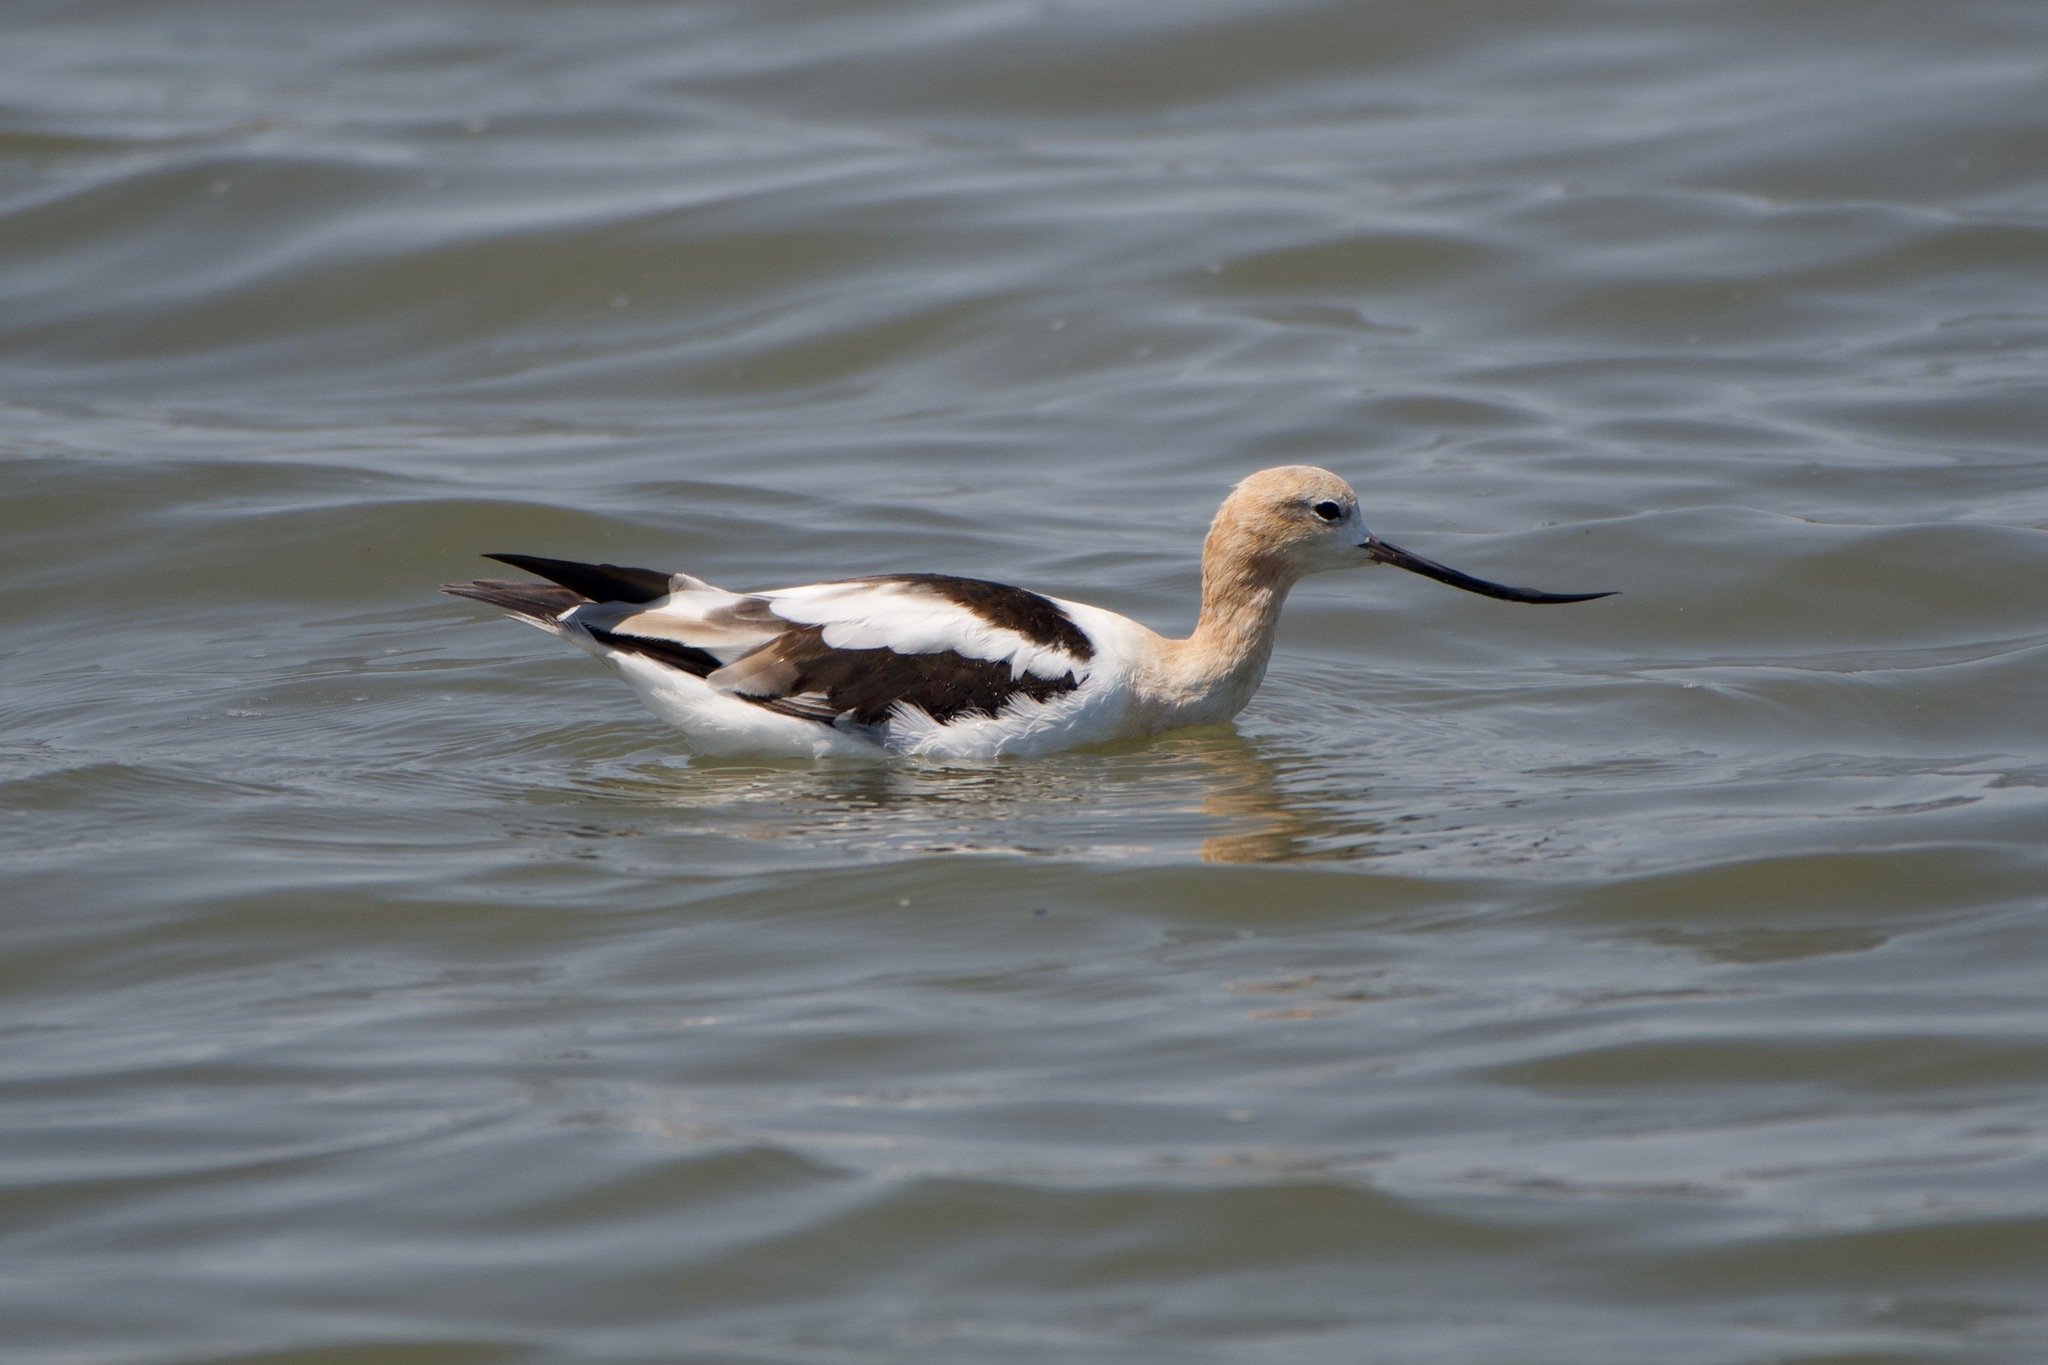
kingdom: Animalia
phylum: Chordata
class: Aves
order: Charadriiformes
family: Recurvirostridae
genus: Recurvirostra
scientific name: Recurvirostra americana
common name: American avocet
